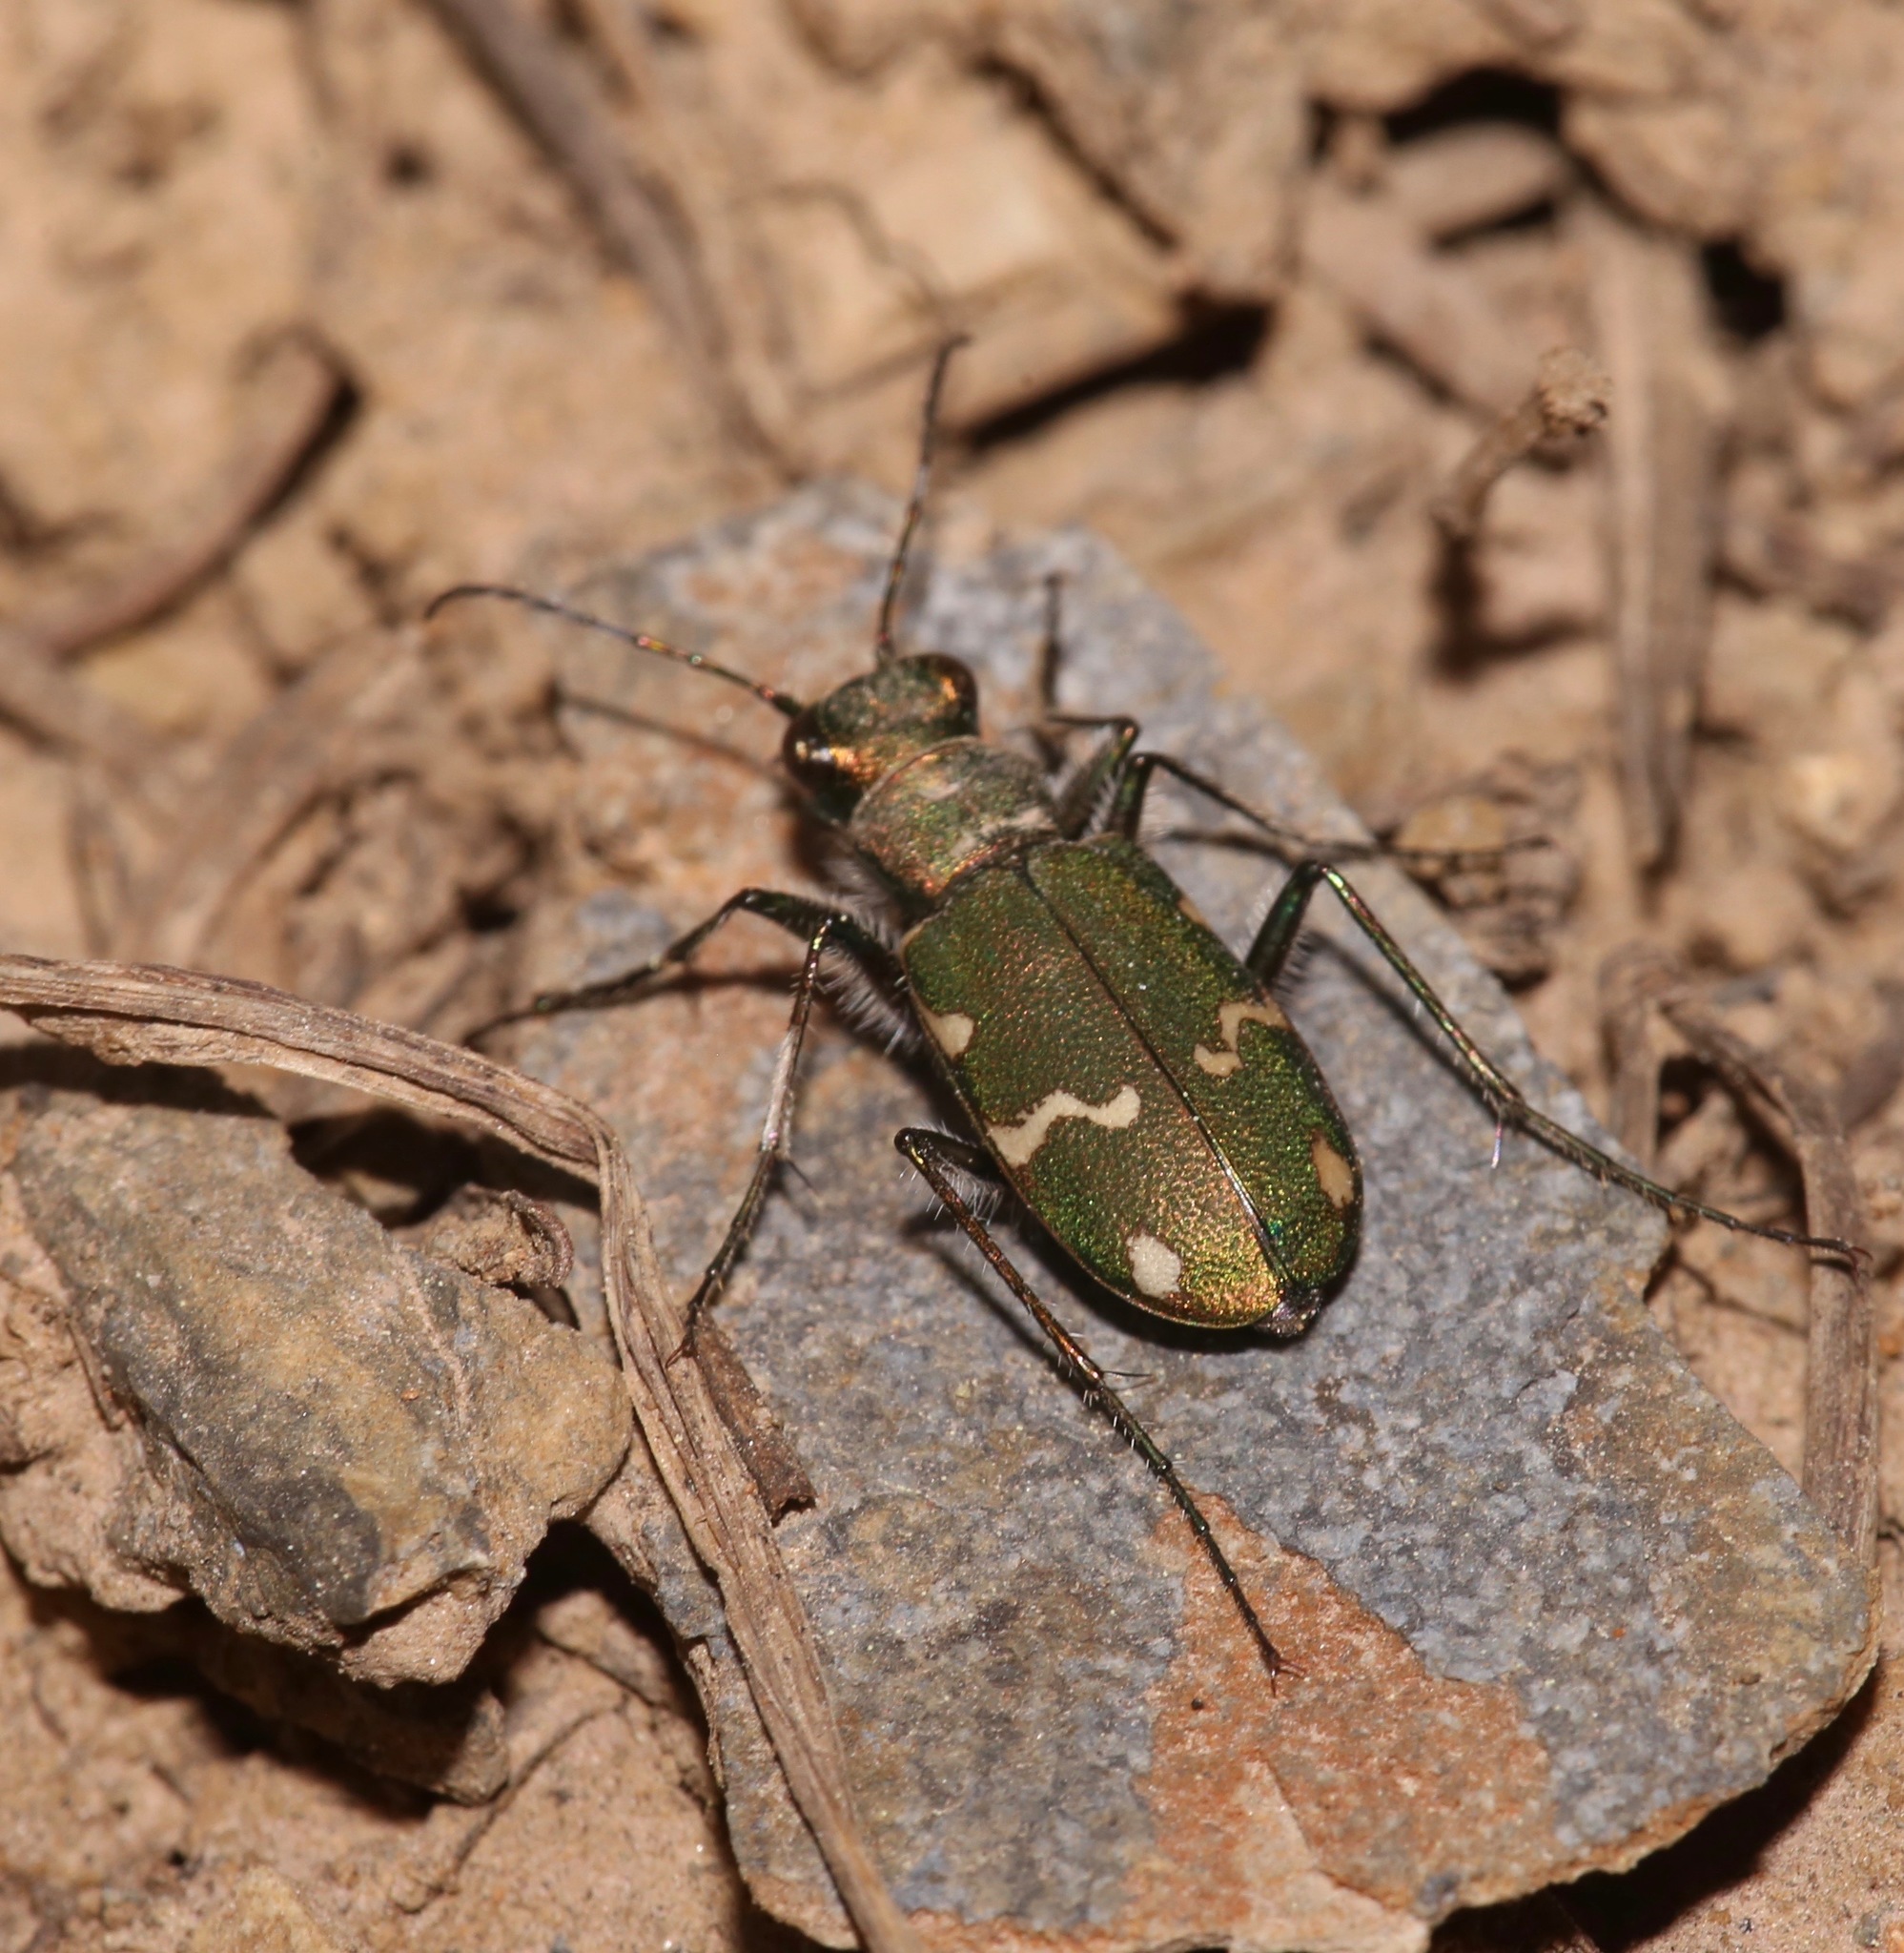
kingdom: Animalia
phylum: Arthropoda
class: Insecta
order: Coleoptera
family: Carabidae
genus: Cicindela
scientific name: Cicindela longilabris
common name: Boreal long-lipped tiger beetle
